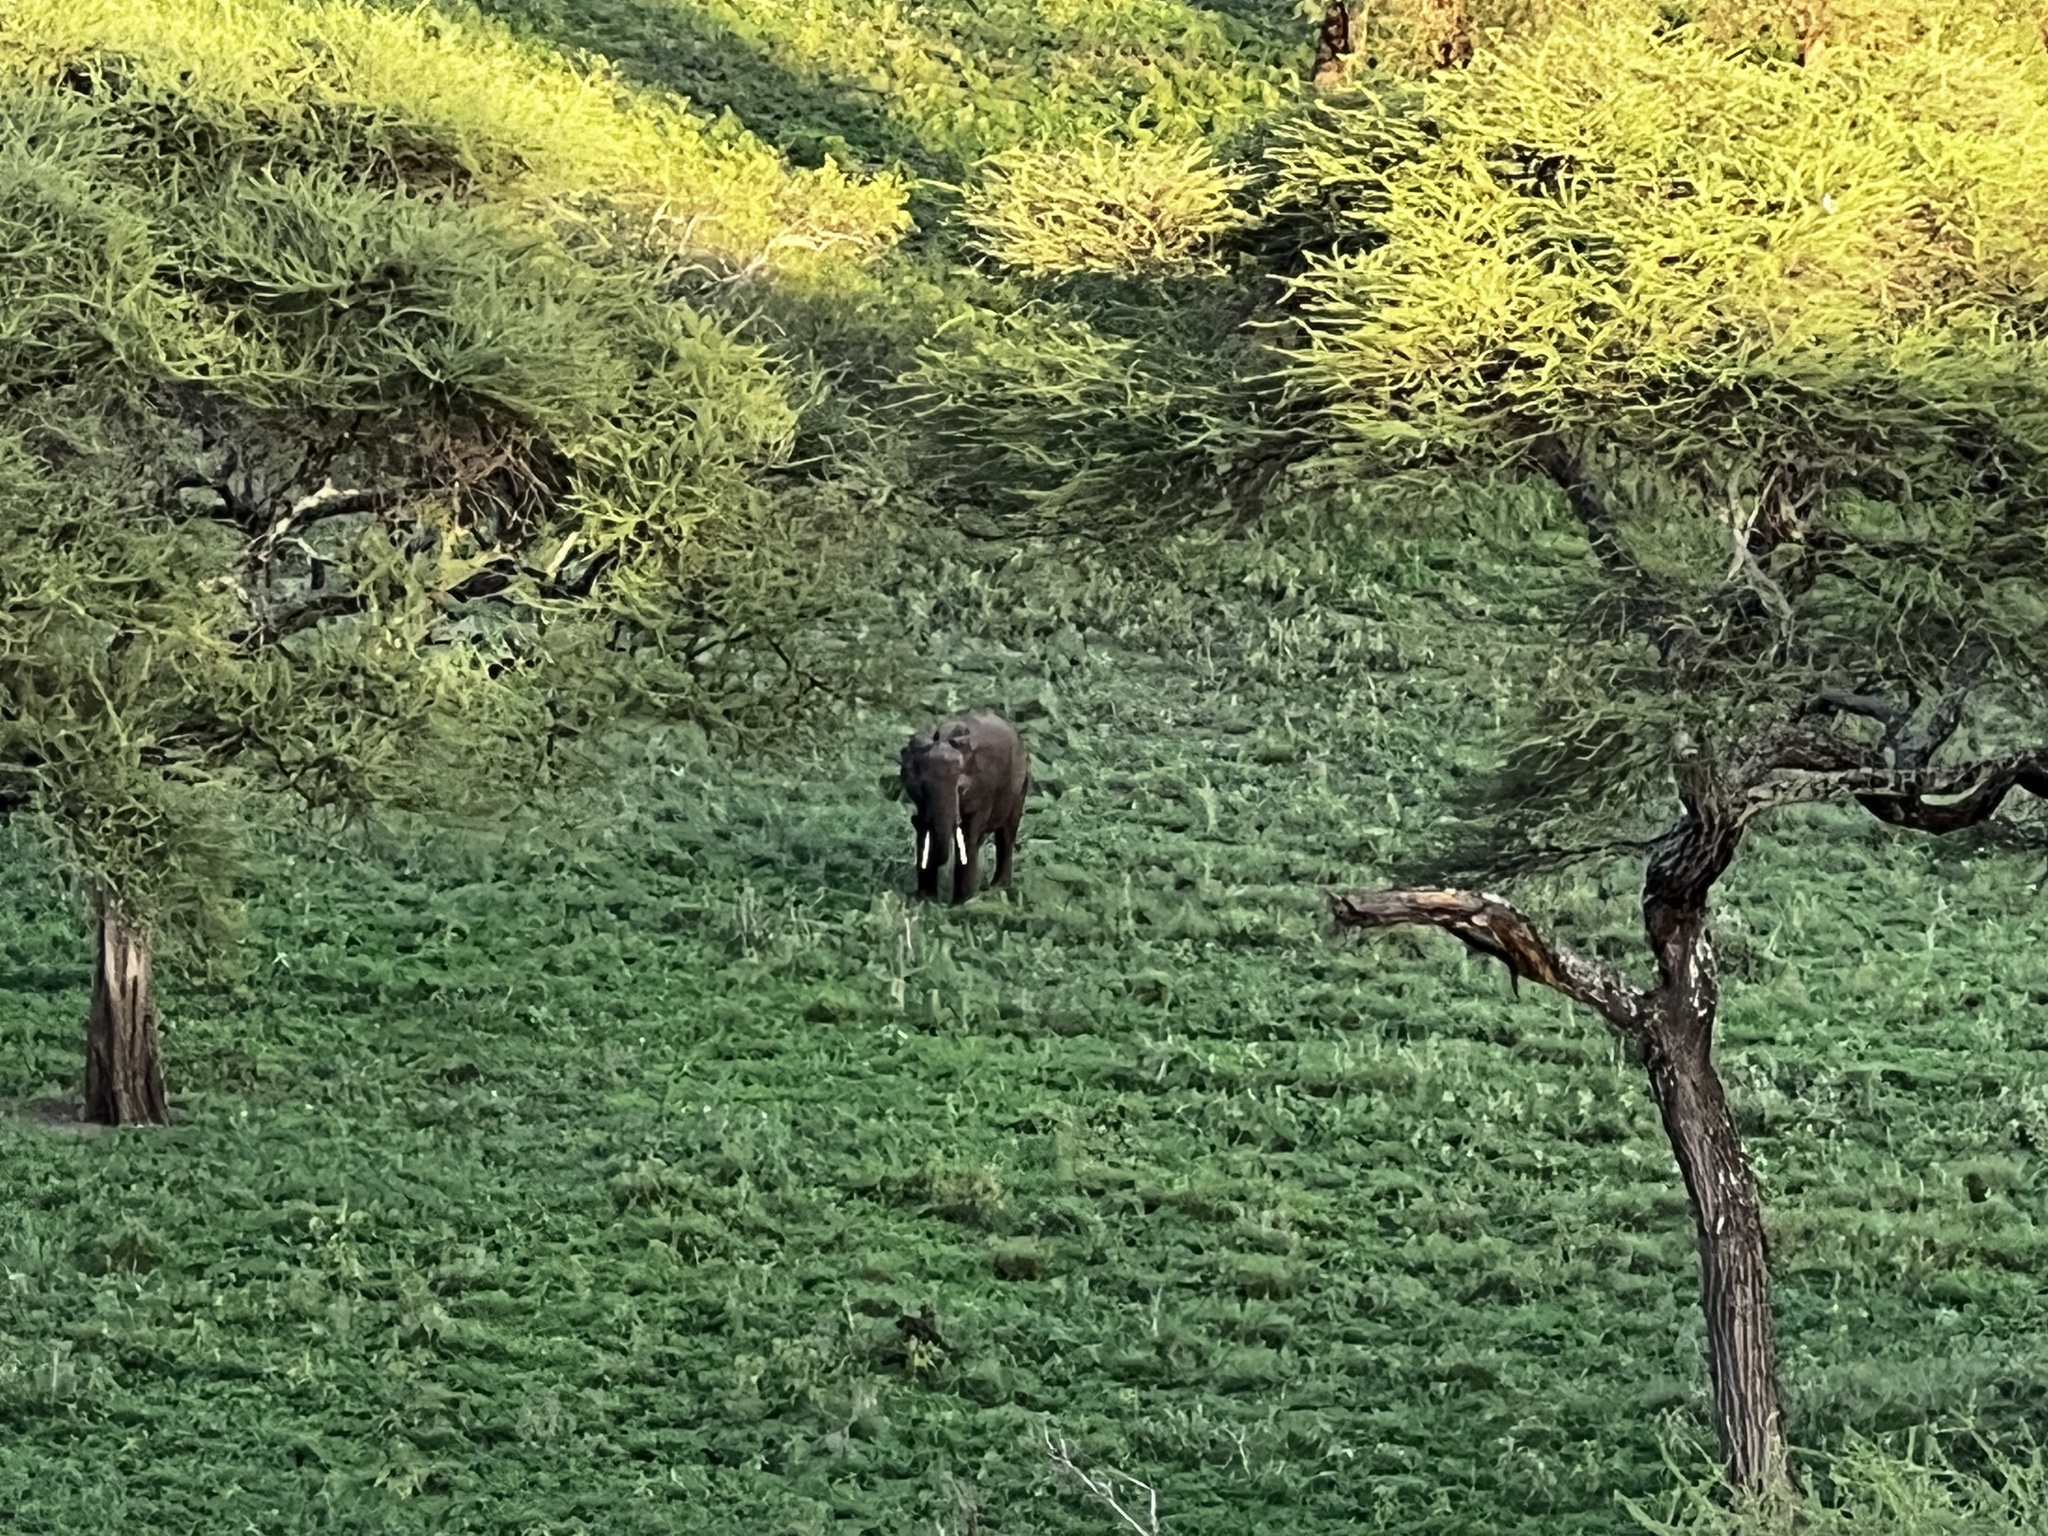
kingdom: Animalia
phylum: Chordata
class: Mammalia
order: Proboscidea
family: Elephantidae
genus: Loxodonta
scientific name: Loxodonta africana
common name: African elephant
